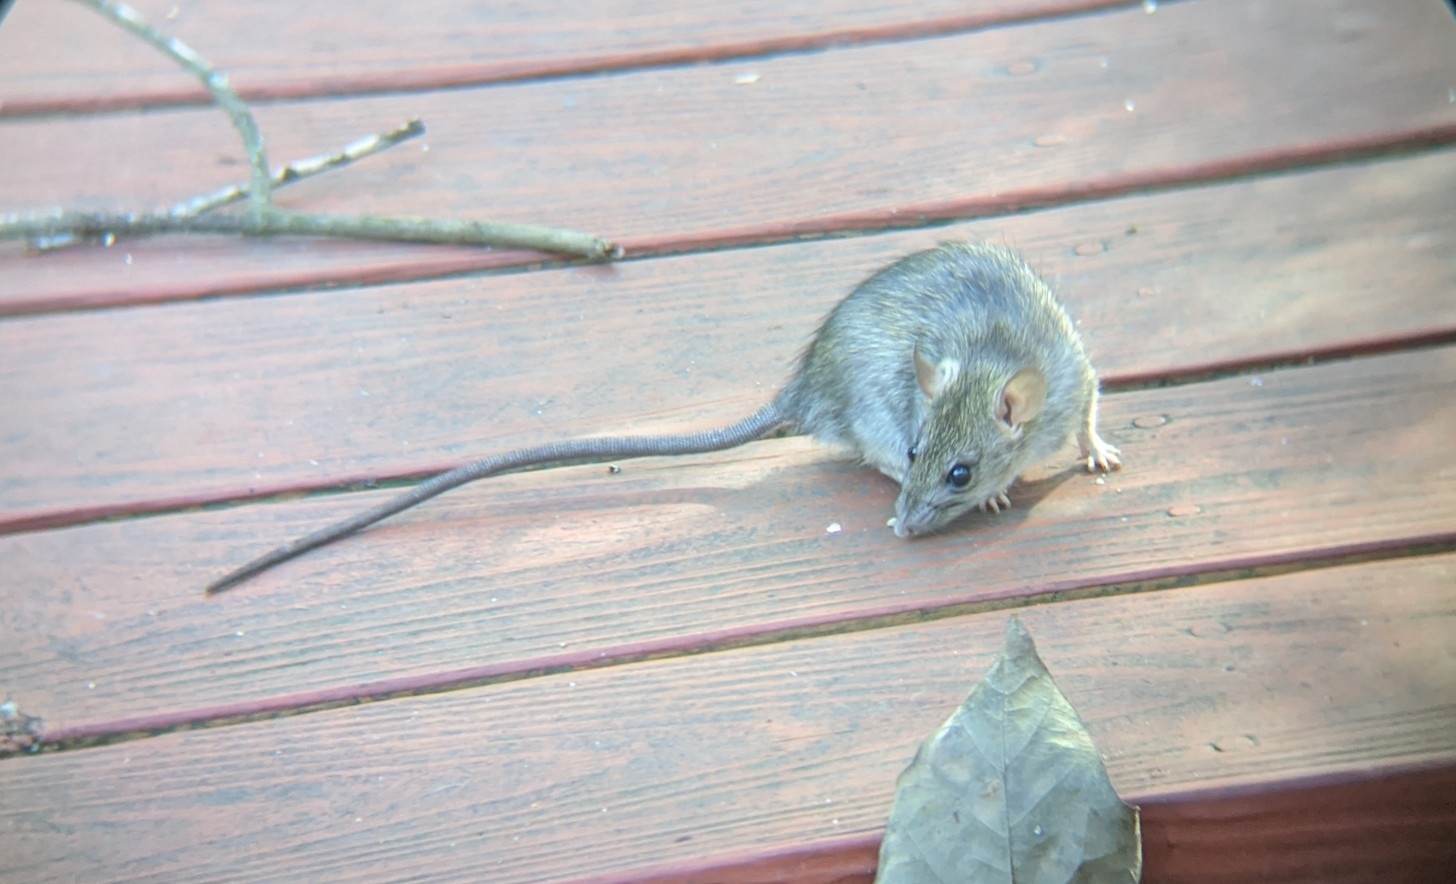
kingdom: Animalia
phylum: Chordata
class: Mammalia
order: Rodentia
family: Muridae
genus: Rattus
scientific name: Rattus rattus
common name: Black rat
